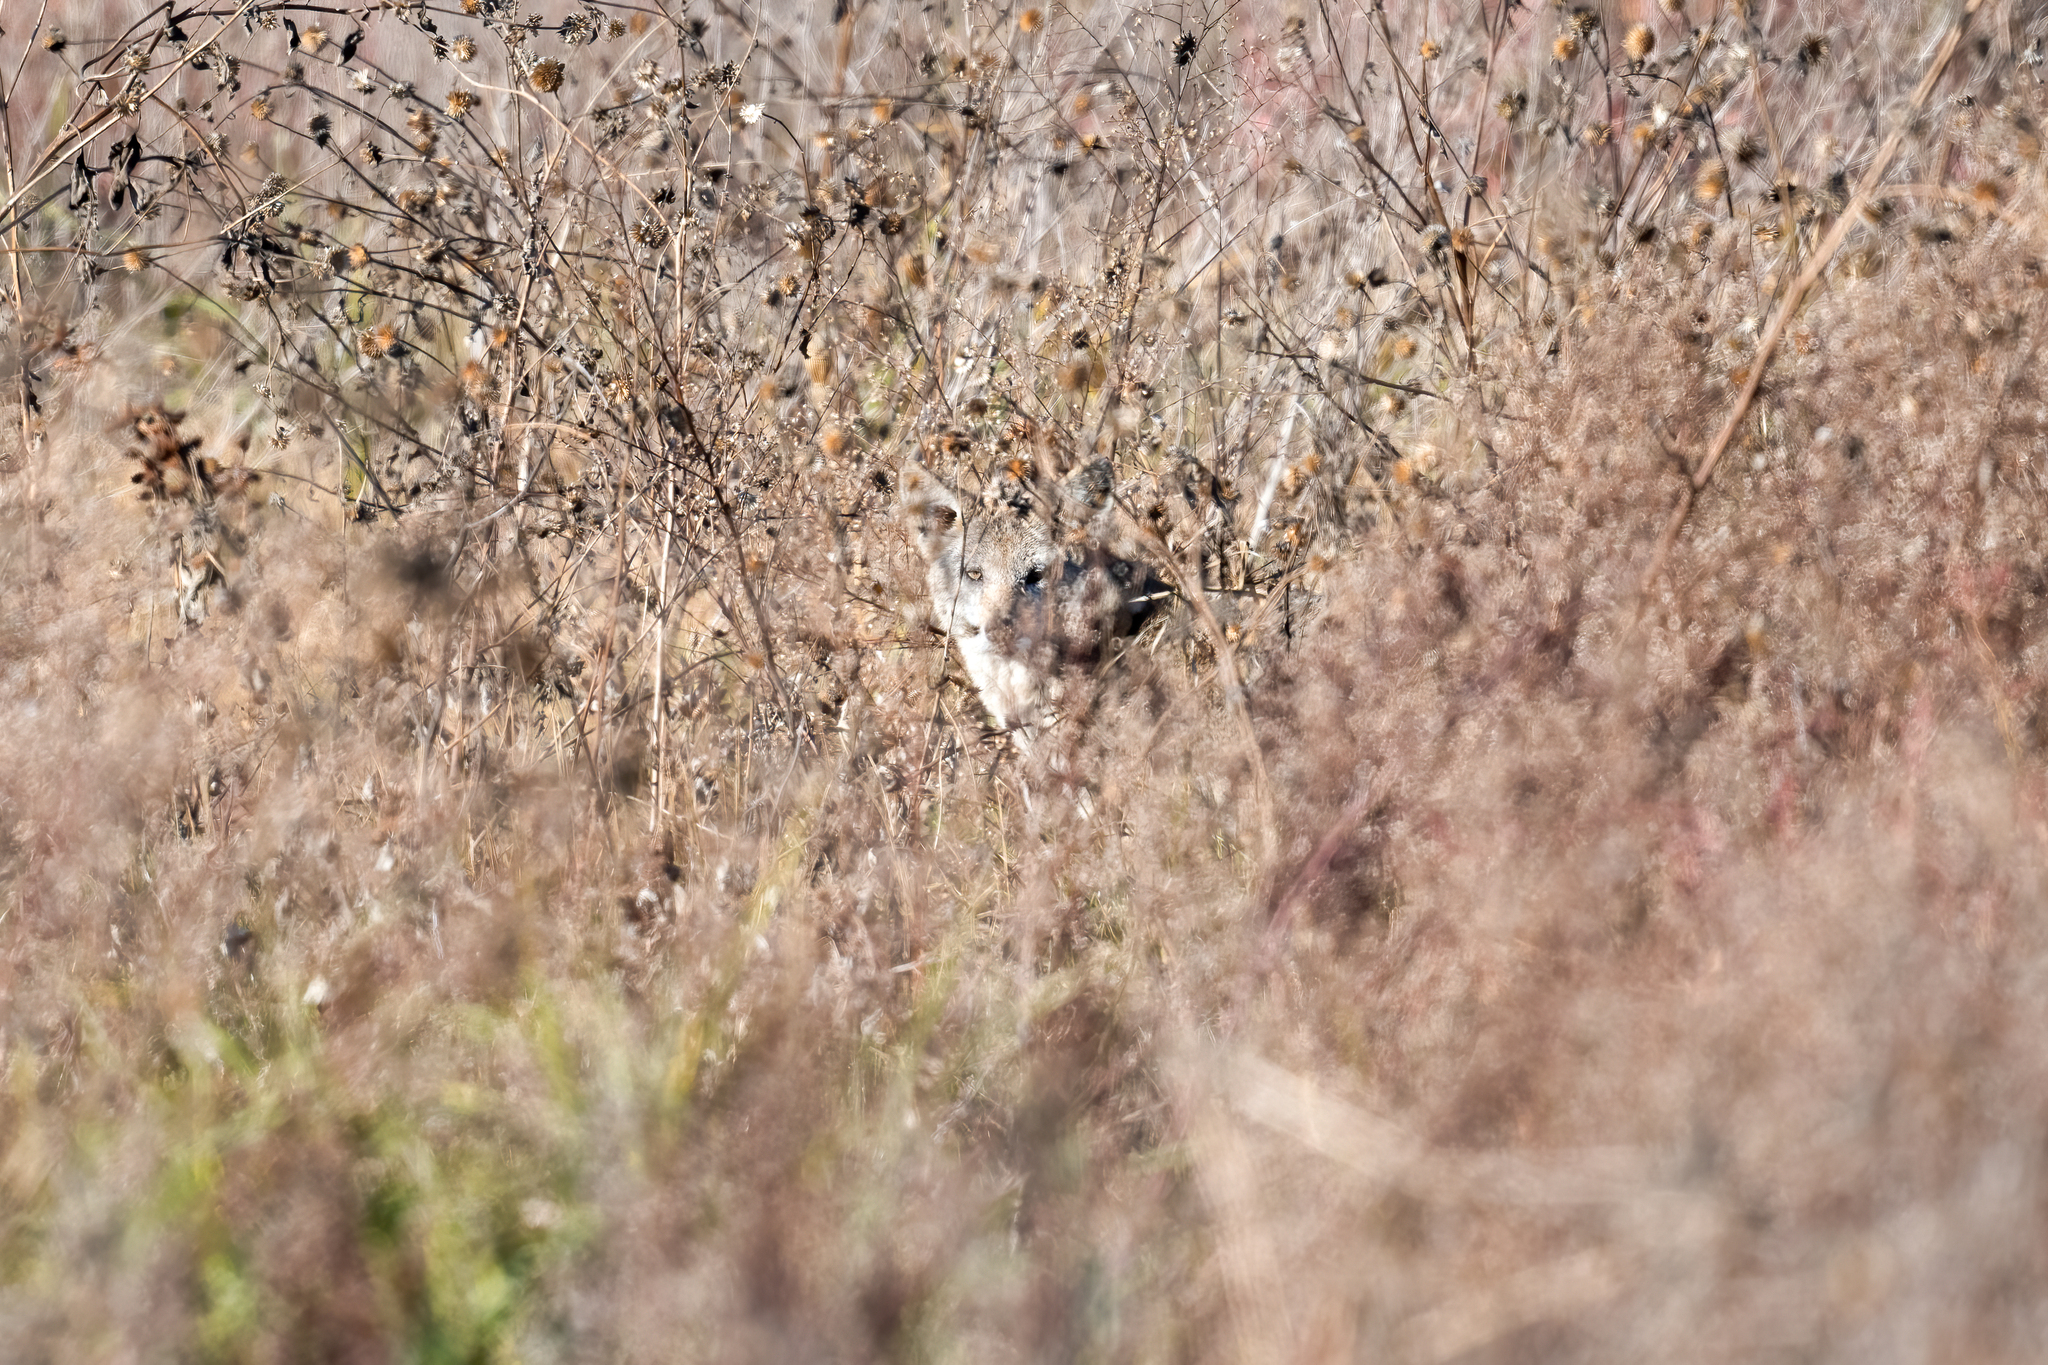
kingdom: Animalia
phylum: Chordata
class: Mammalia
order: Carnivora
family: Canidae
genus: Canis
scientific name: Canis latrans
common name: Coyote
